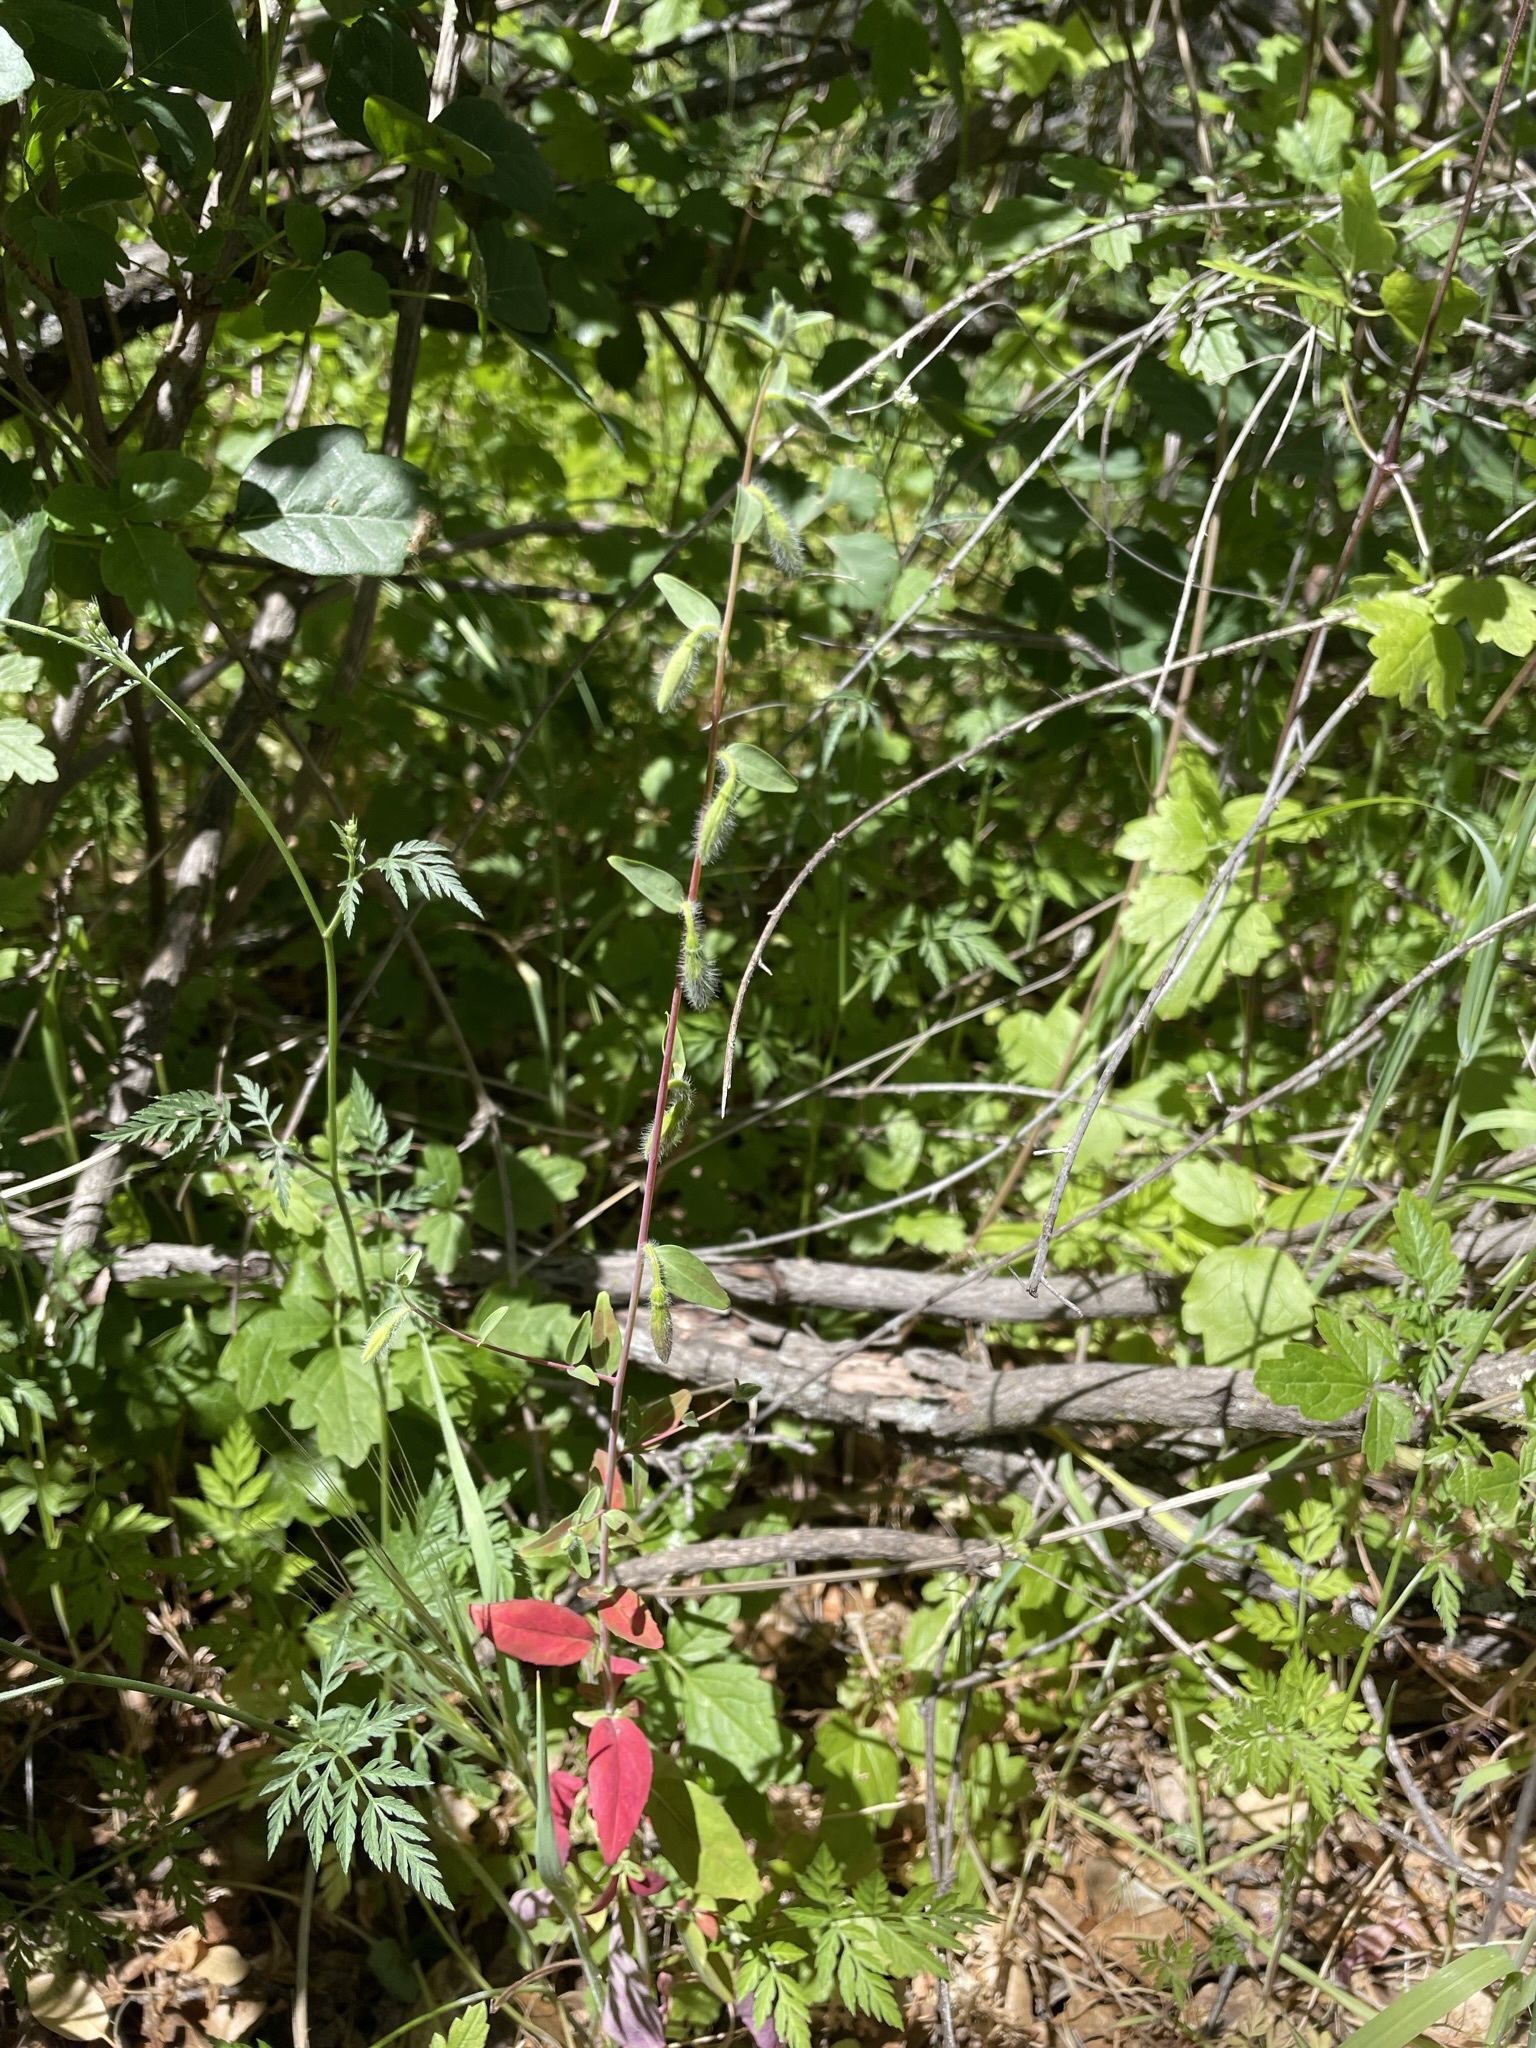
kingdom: Plantae
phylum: Tracheophyta
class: Magnoliopsida
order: Myrtales
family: Onagraceae
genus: Clarkia
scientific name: Clarkia unguiculata
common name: Clarkia
